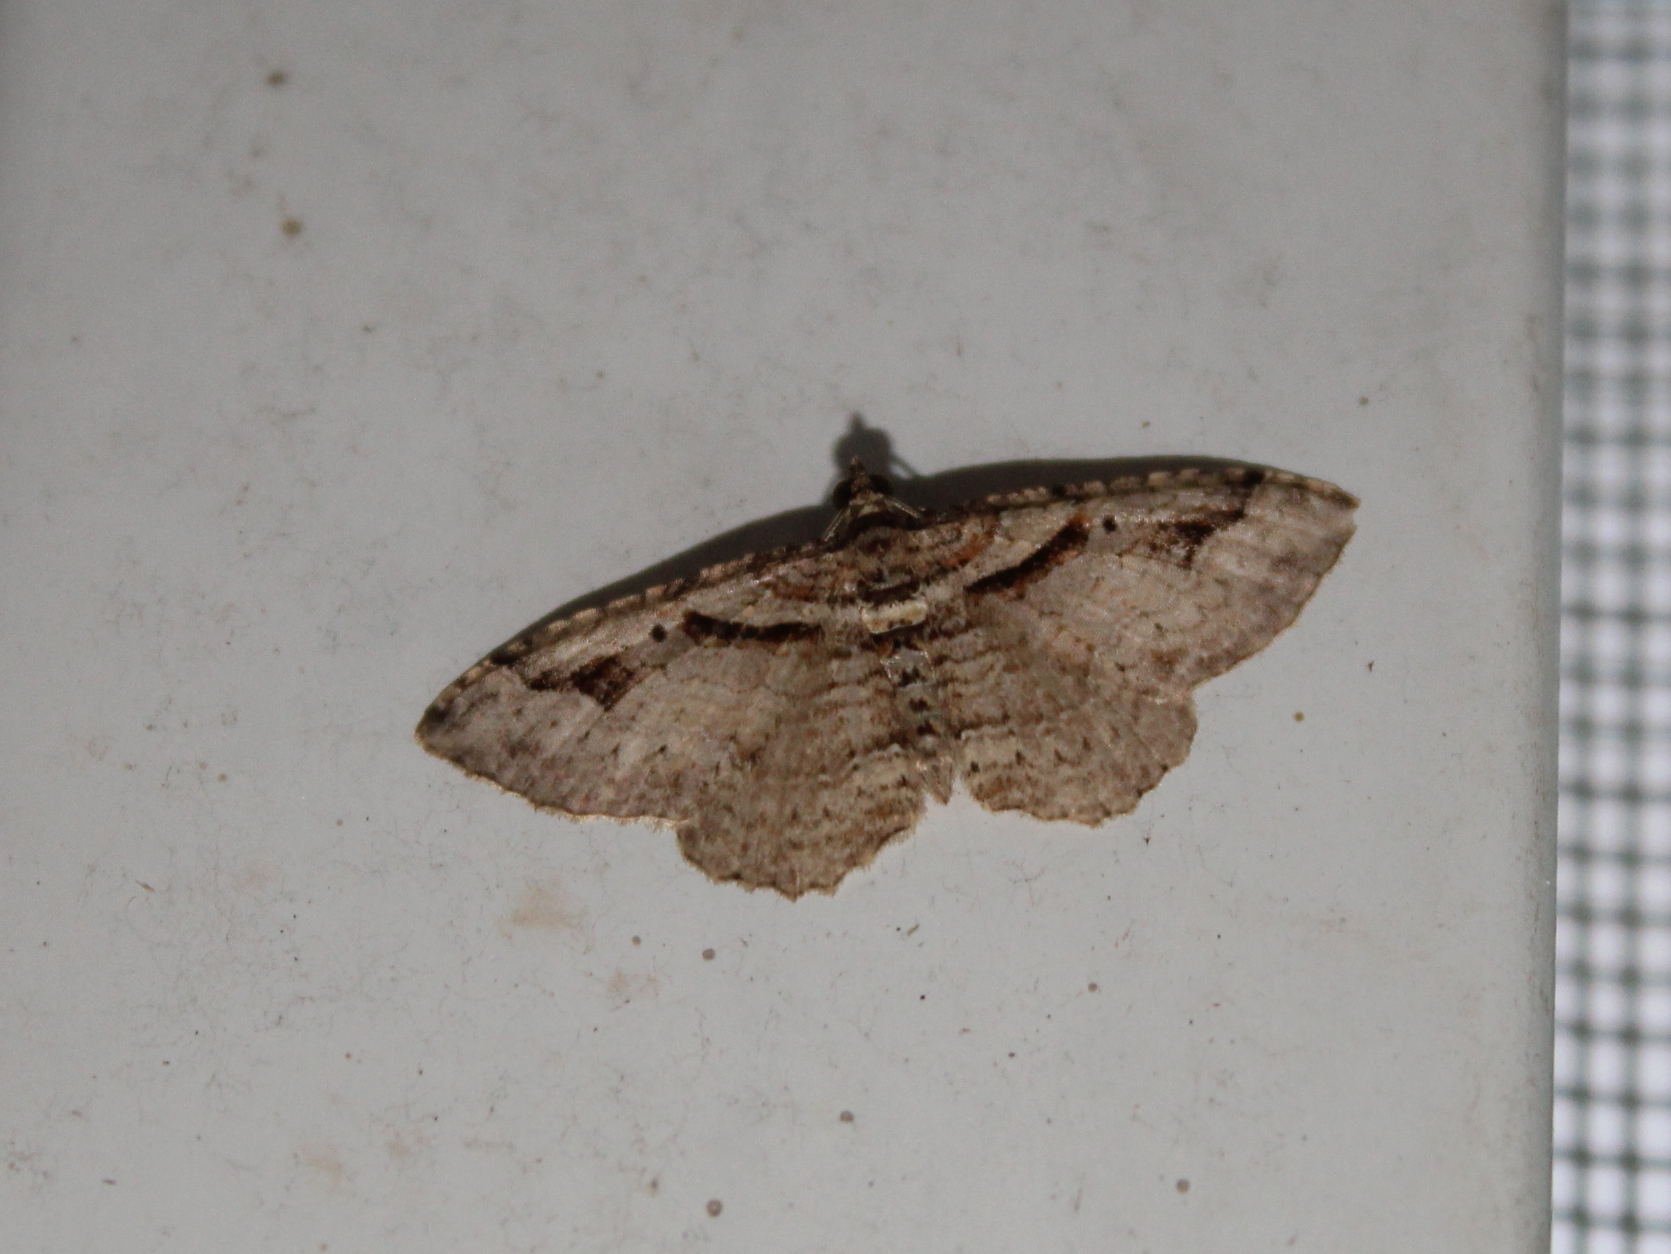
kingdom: Animalia
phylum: Arthropoda
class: Insecta
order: Lepidoptera
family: Geometridae
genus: Costaconvexa
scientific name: Costaconvexa centrostrigaria
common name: Bent-line carpet
